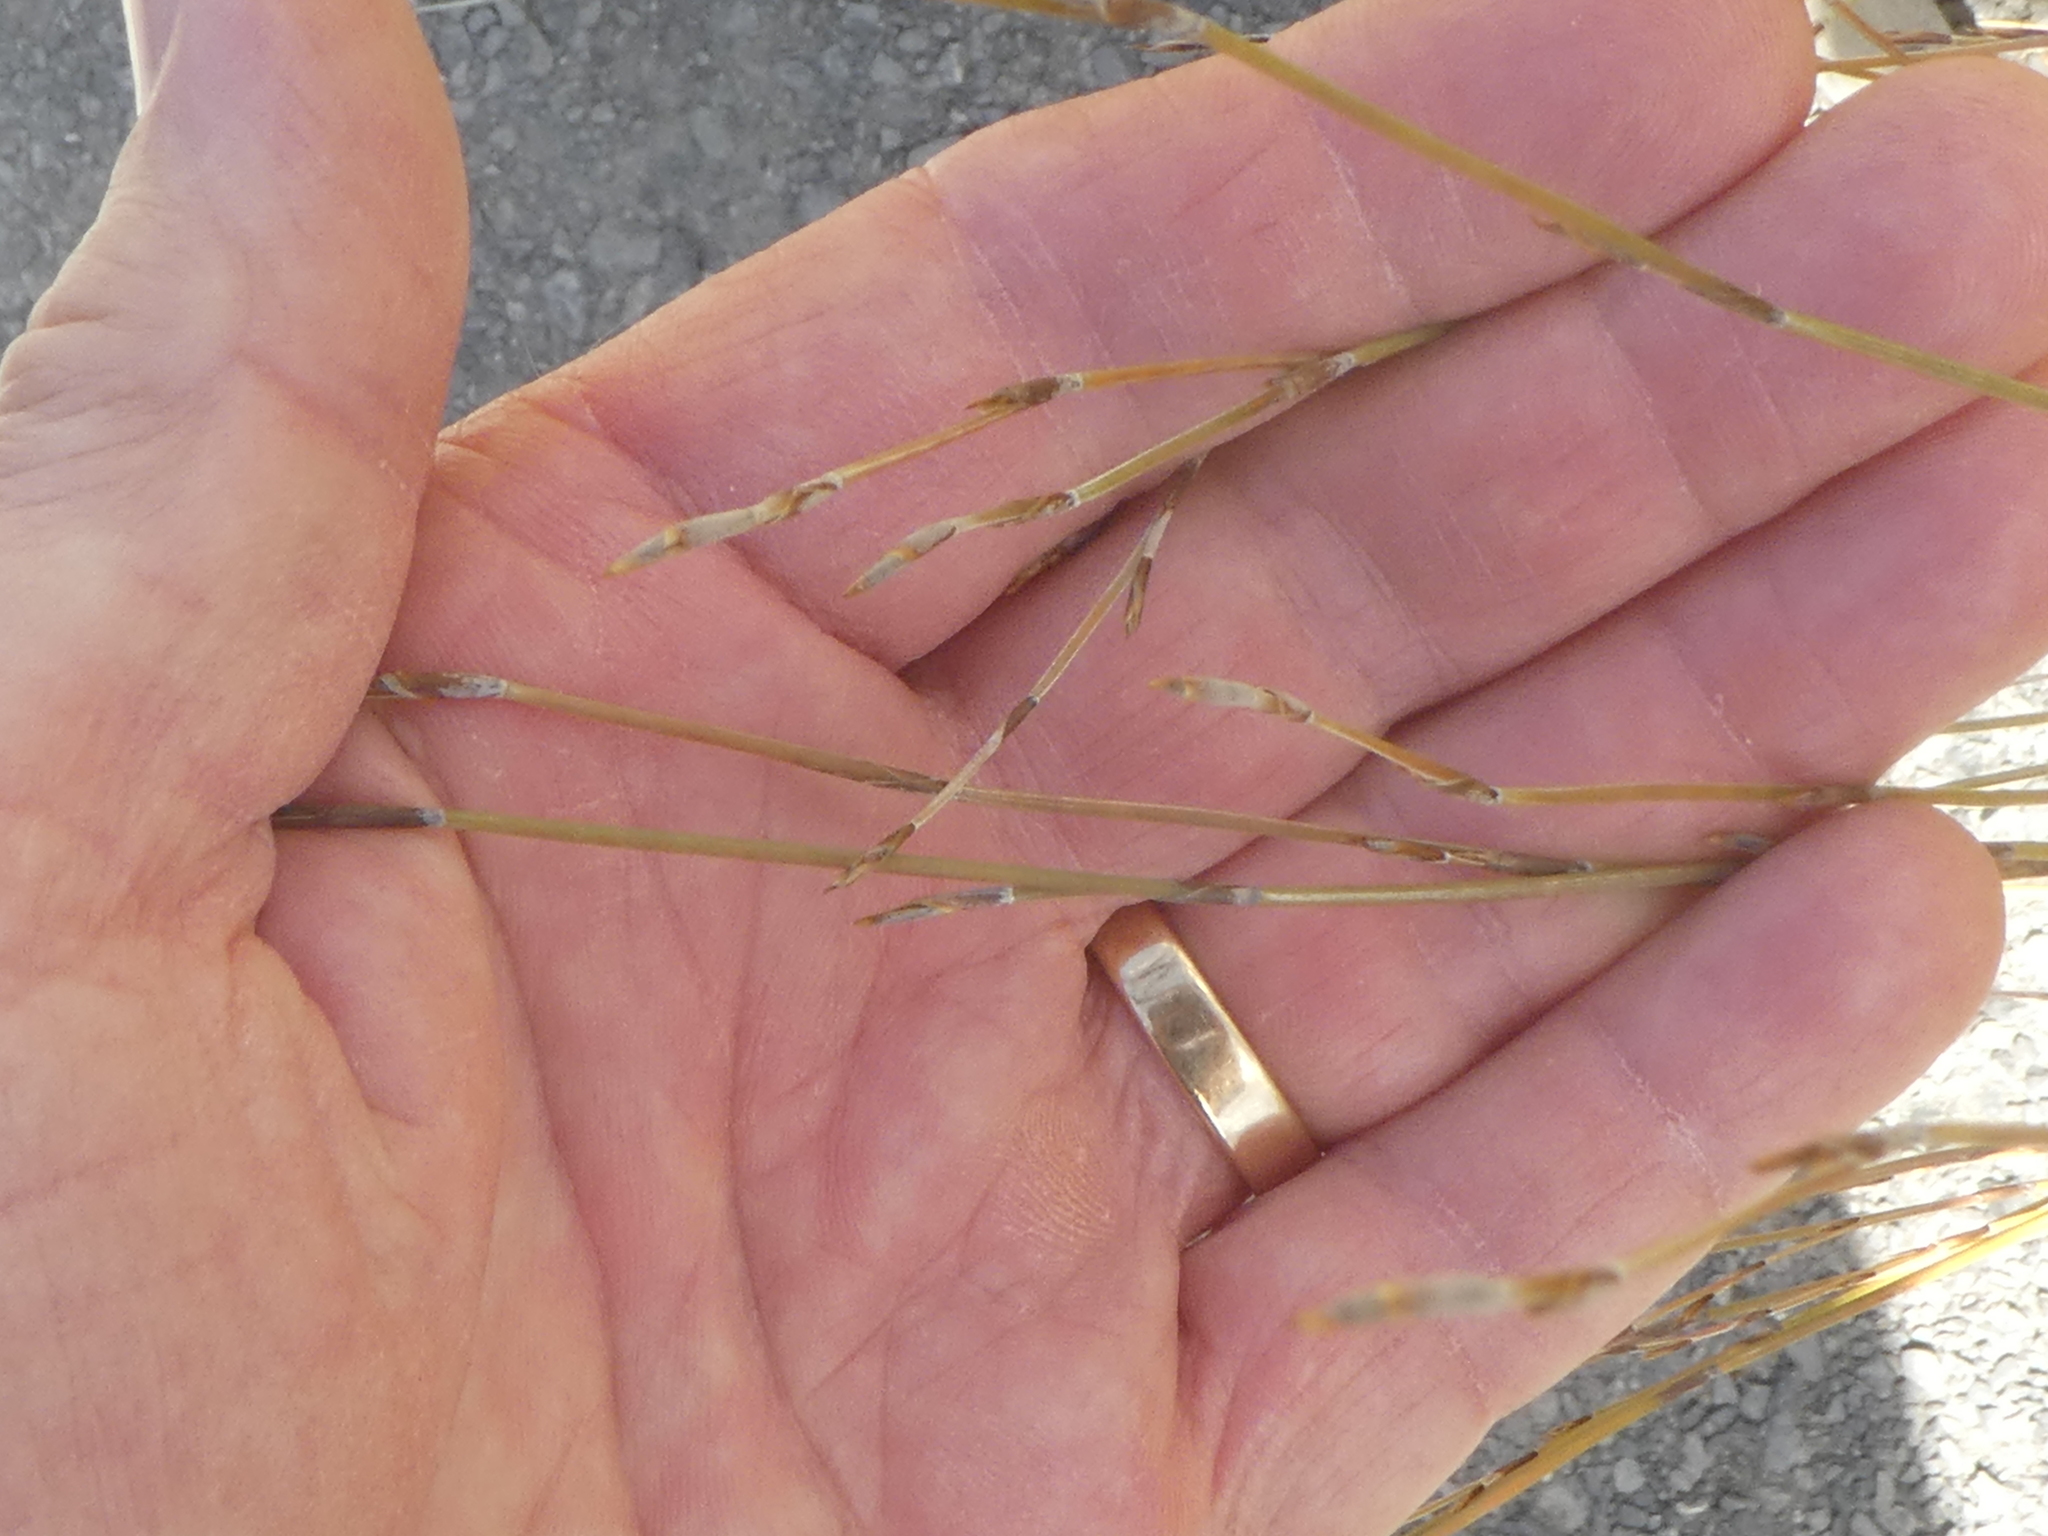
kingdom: Plantae
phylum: Tracheophyta
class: Liliopsida
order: Poales
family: Restionaceae
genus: Apodasmia
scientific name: Apodasmia similis
